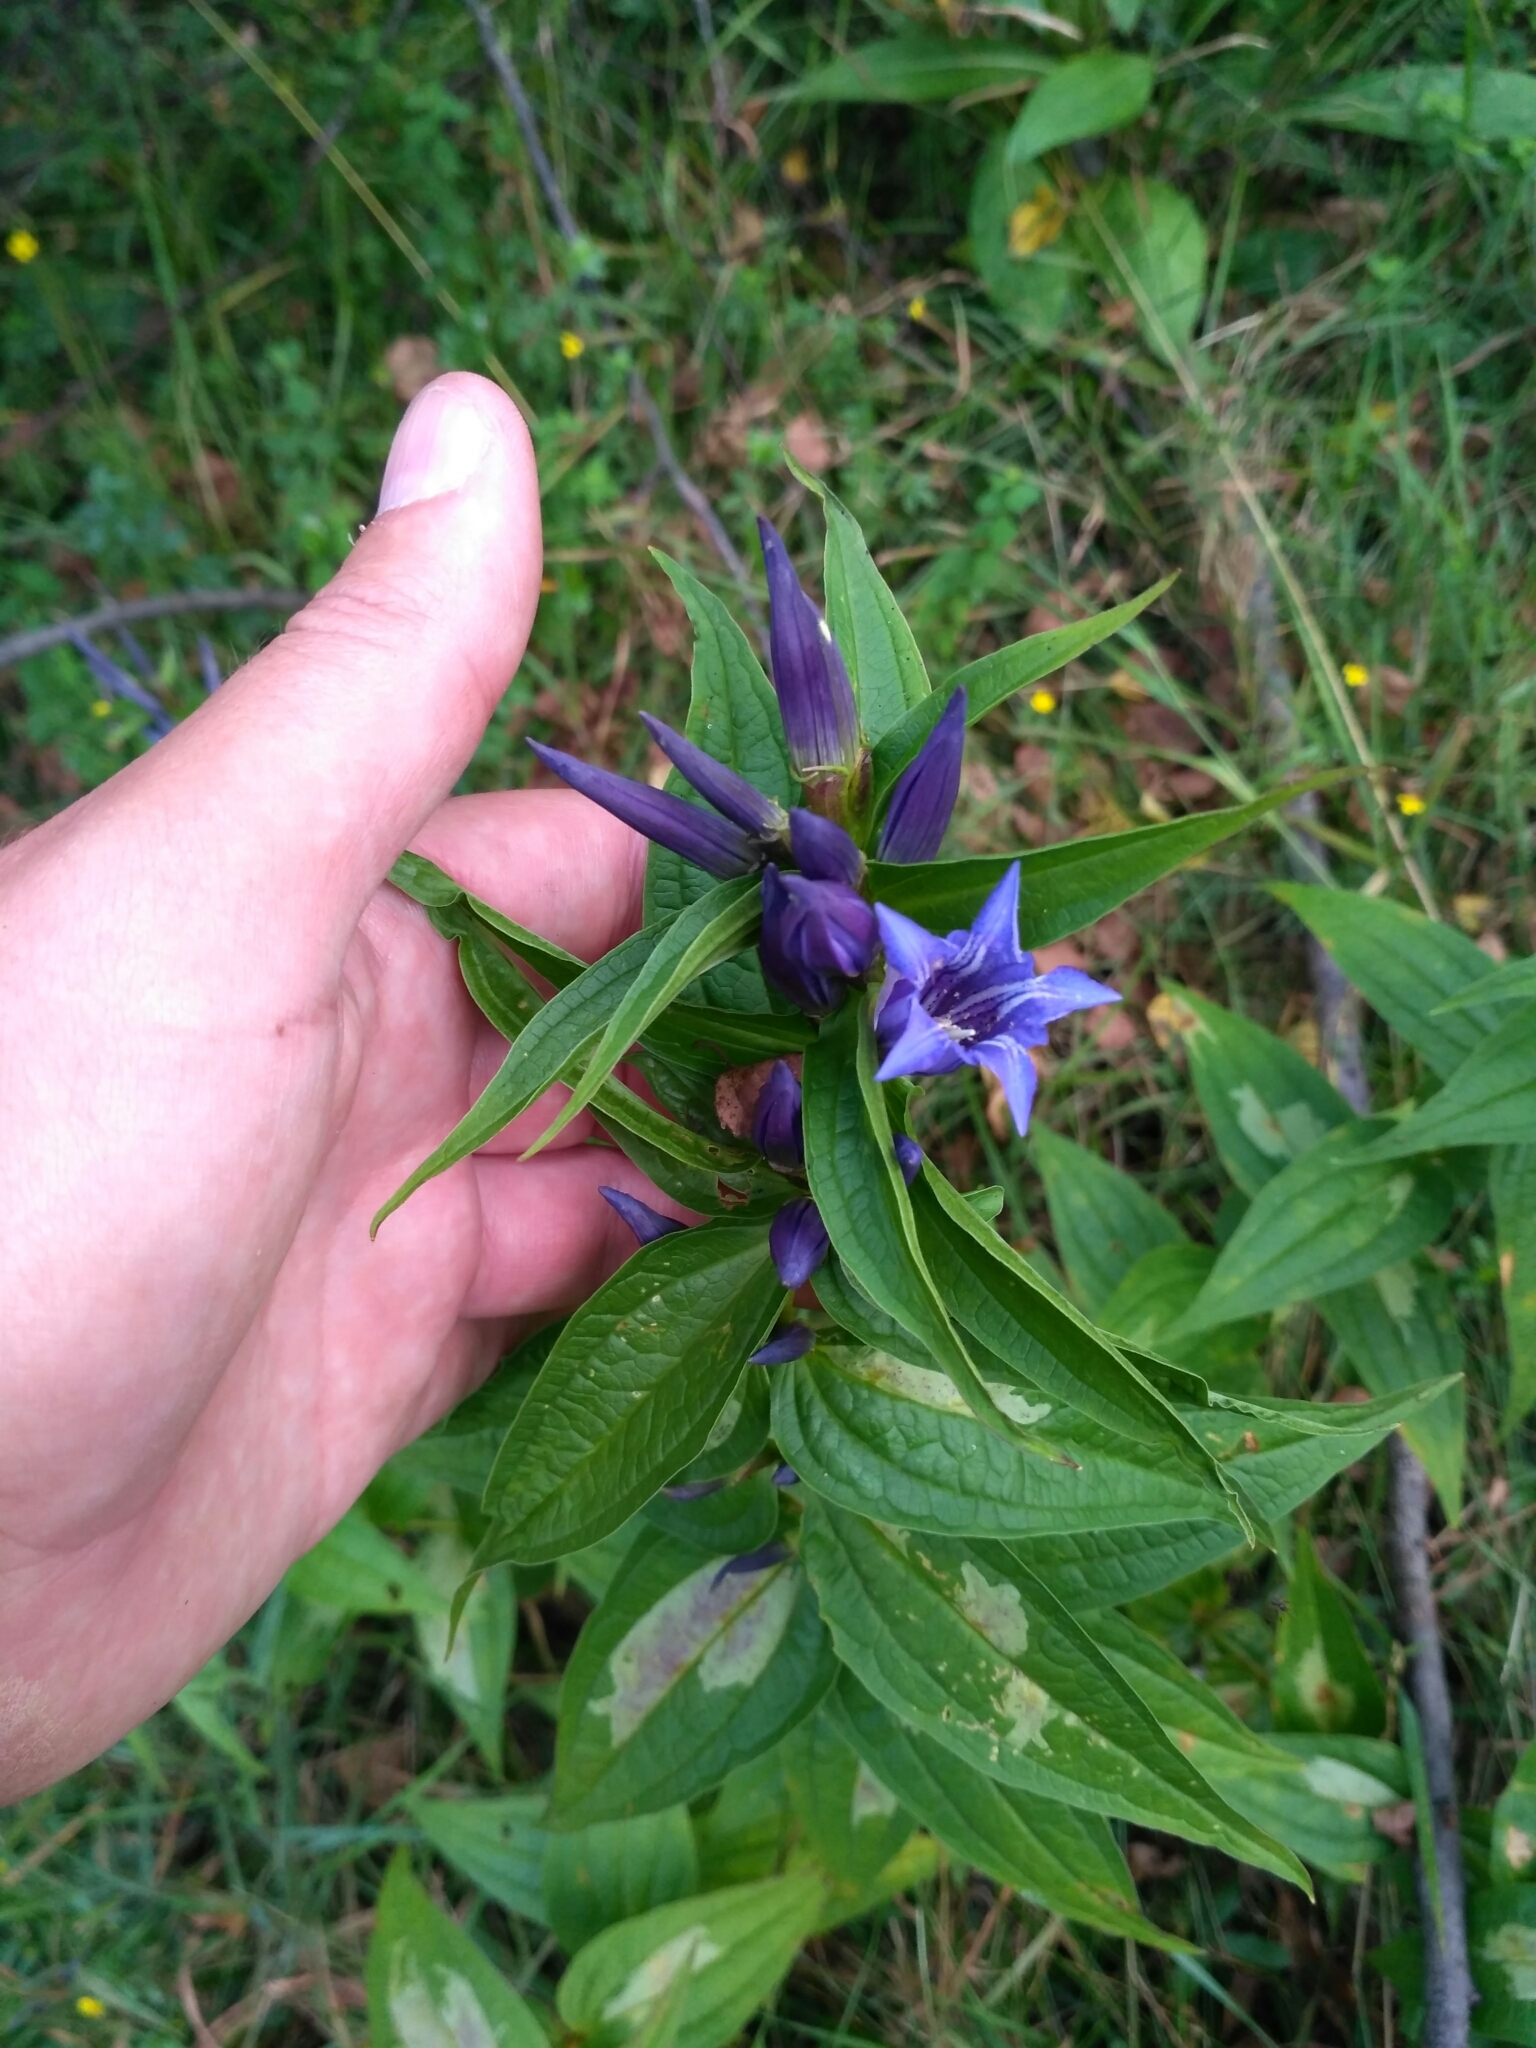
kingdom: Plantae
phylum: Tracheophyta
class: Magnoliopsida
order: Gentianales
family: Gentianaceae
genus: Gentiana
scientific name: Gentiana asclepiadea
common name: Willow gentian
